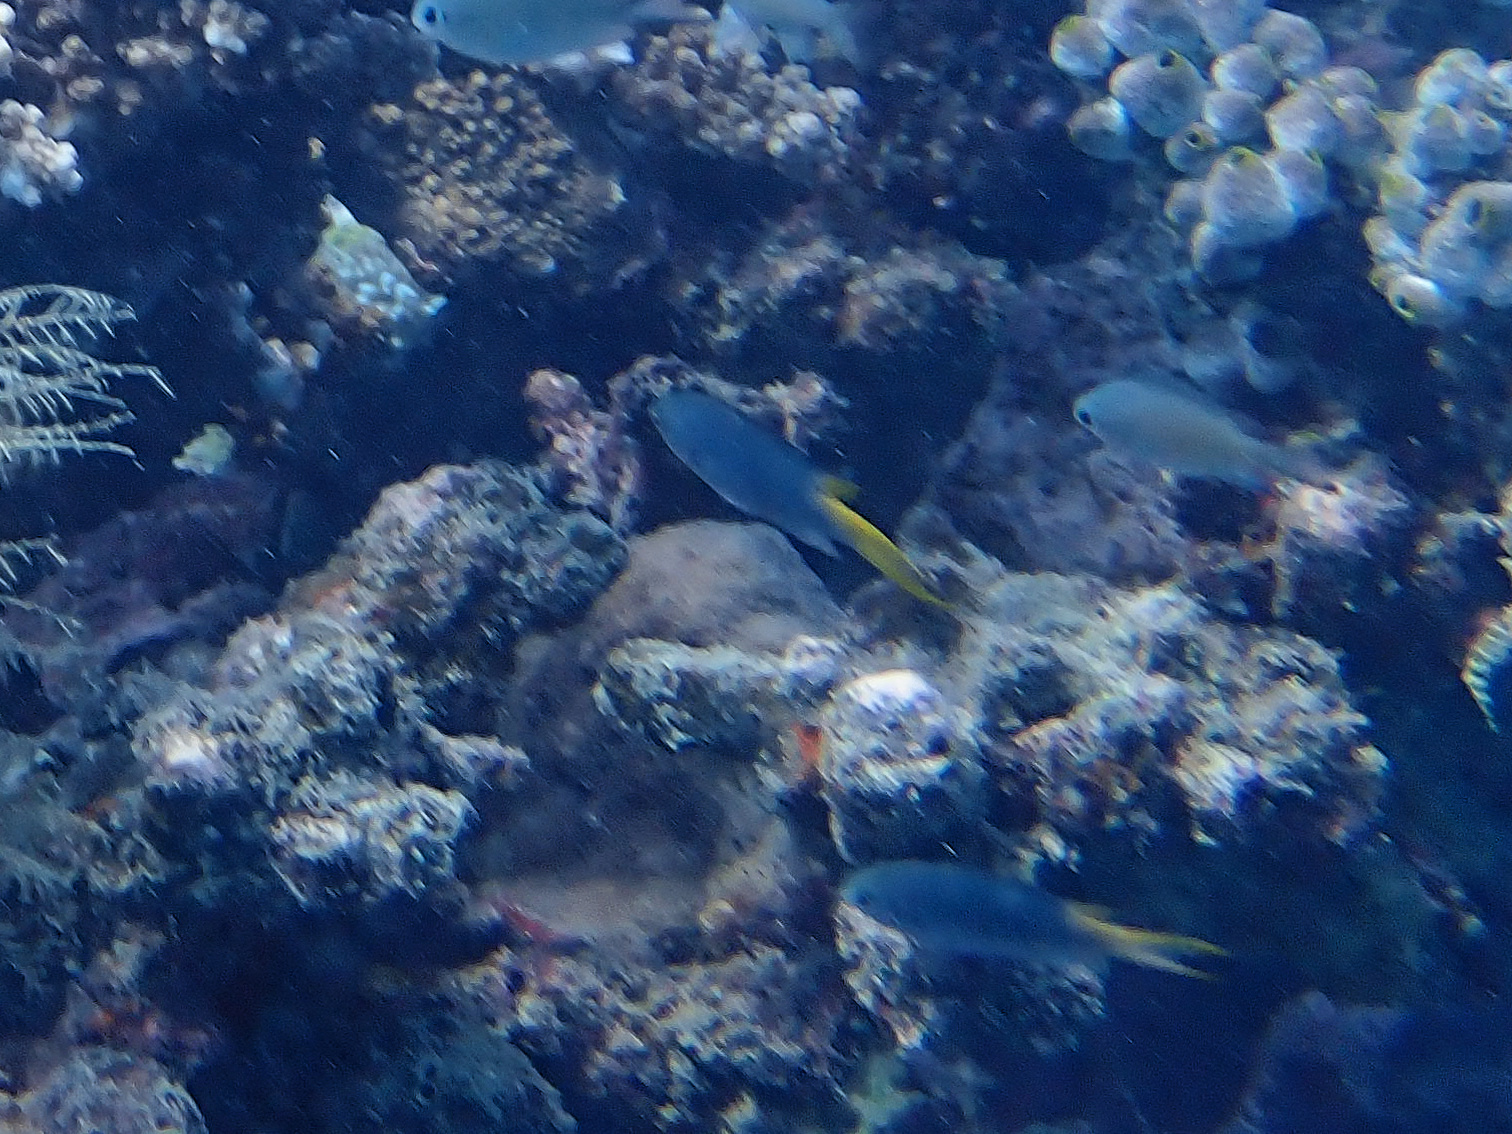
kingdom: Animalia
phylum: Chordata
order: Perciformes
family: Pomacentridae
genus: Neopomacentrus
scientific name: Neopomacentrus azysron
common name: Yellow-tail damsel
